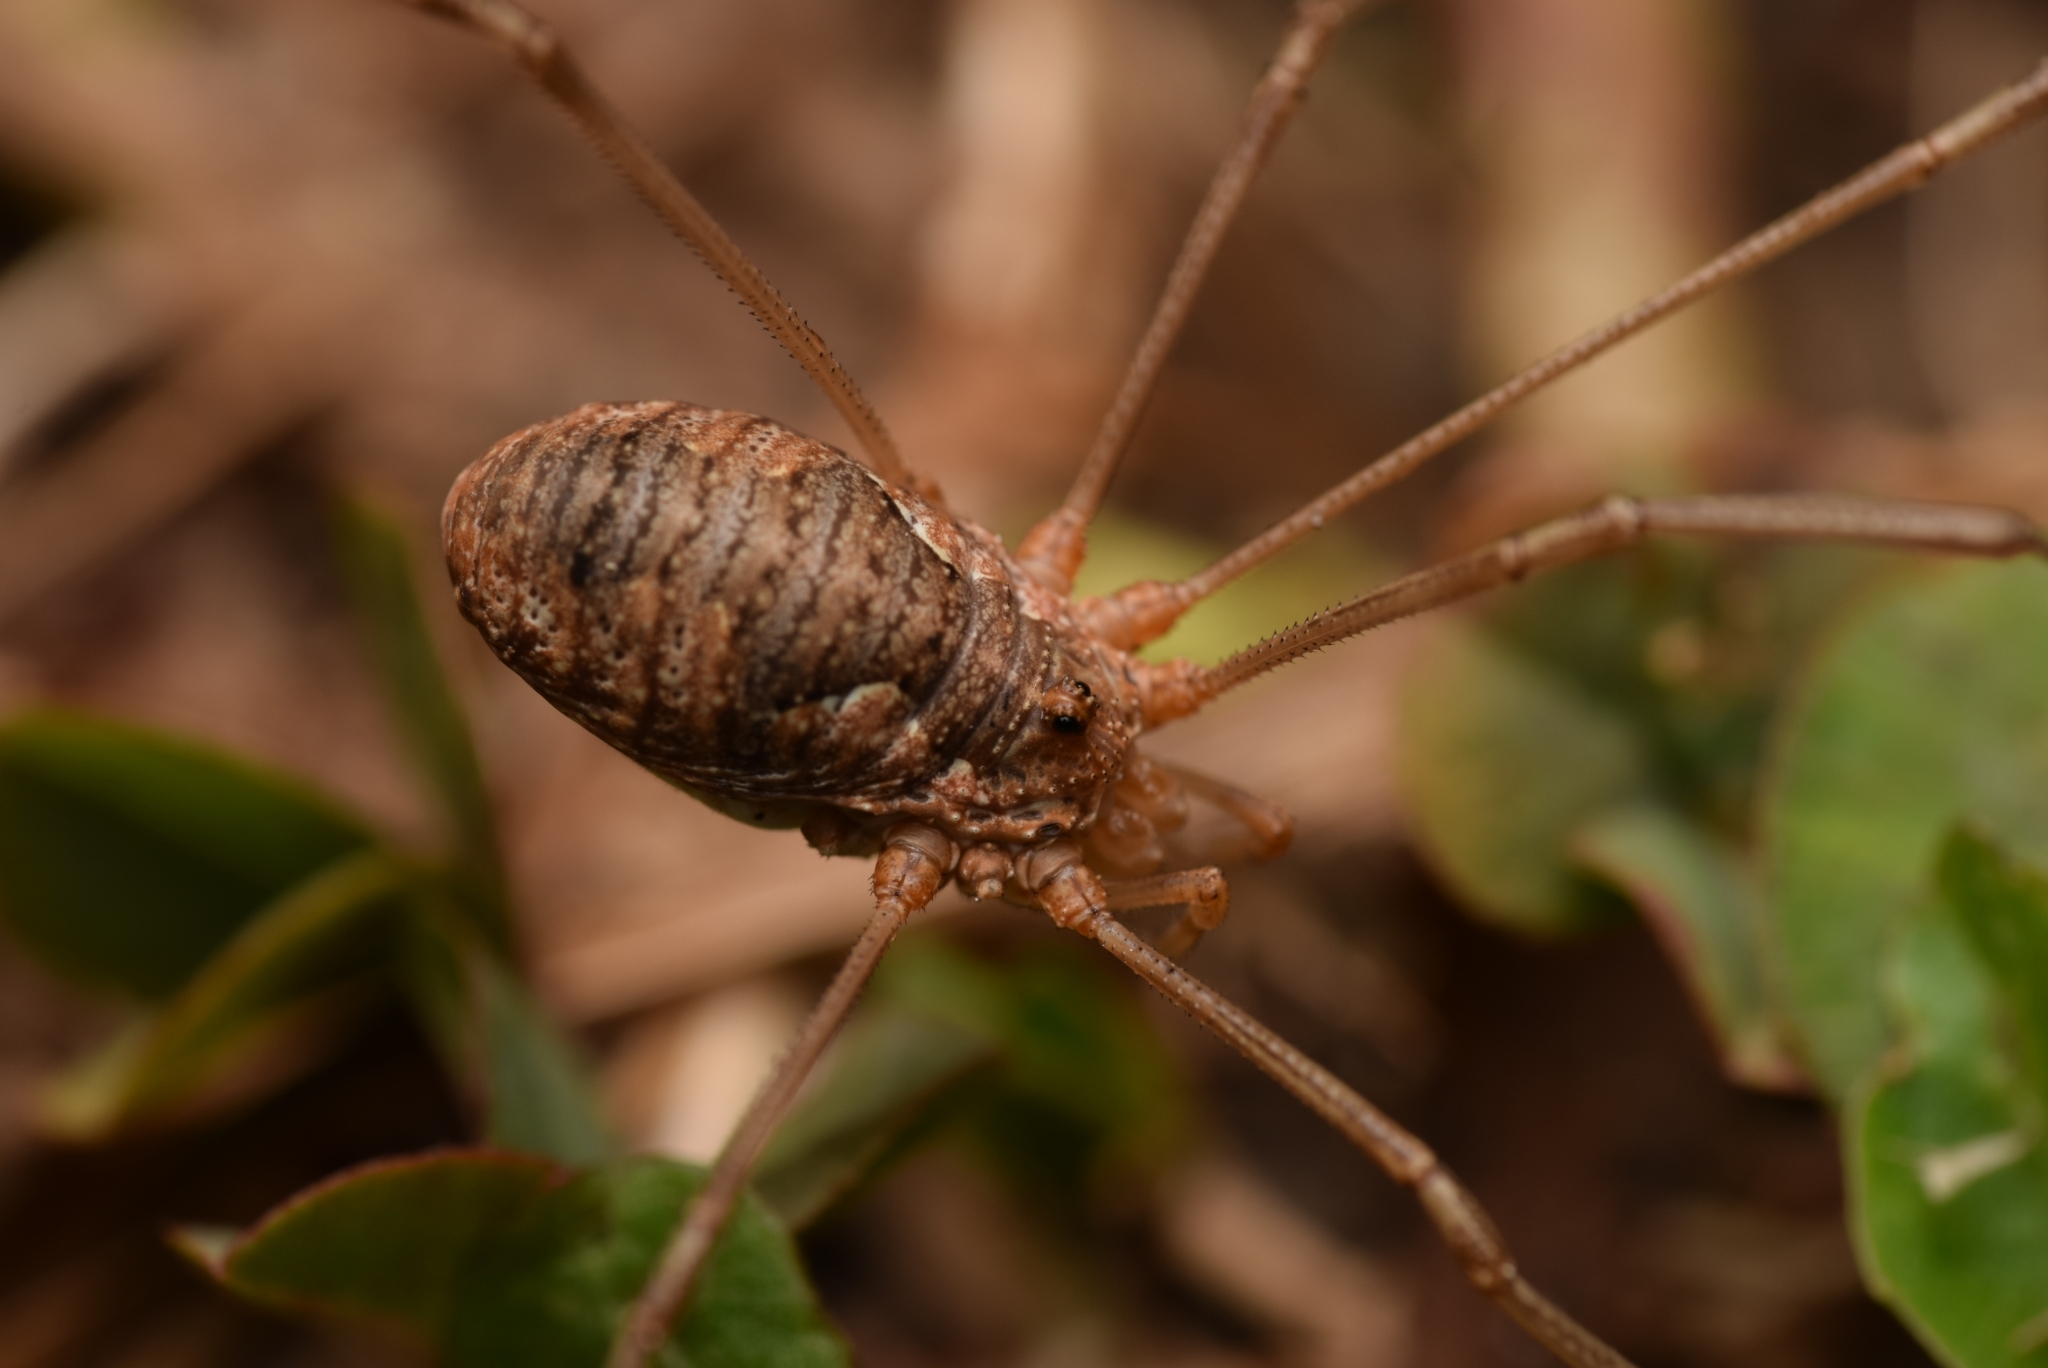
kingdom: Animalia
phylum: Arthropoda
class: Arachnida
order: Opiliones
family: Phalangiidae
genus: Phalangium
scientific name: Phalangium opilio
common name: Daddy longleg
